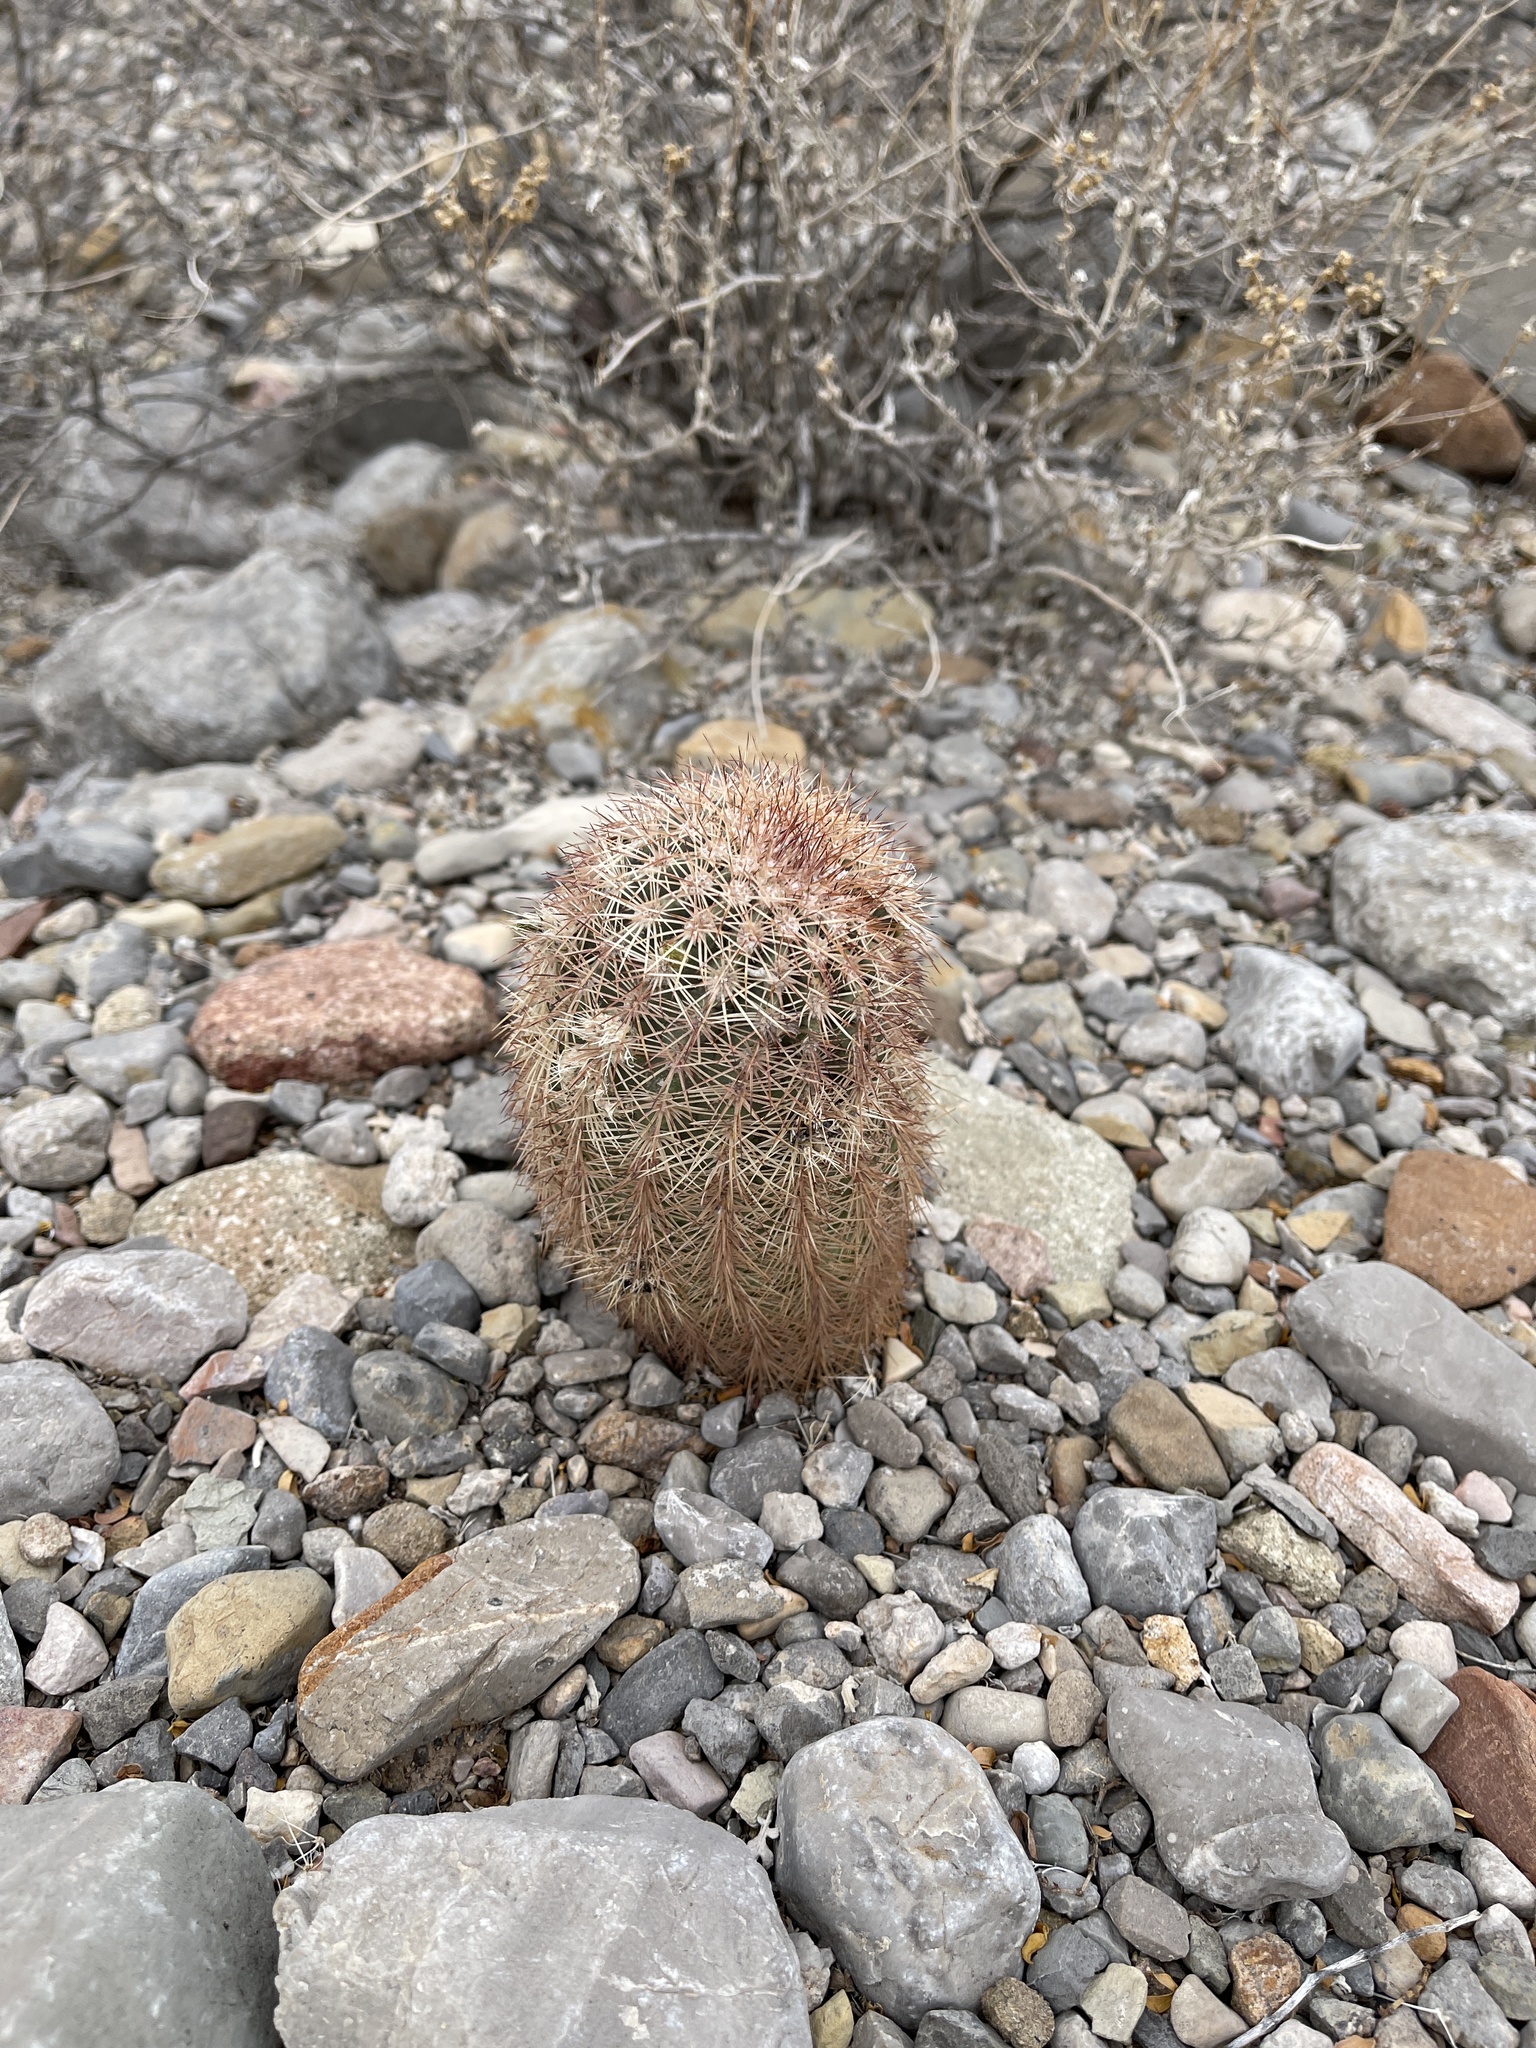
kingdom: Plantae
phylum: Tracheophyta
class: Magnoliopsida
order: Caryophyllales
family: Cactaceae
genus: Echinocereus
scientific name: Echinocereus dasyacanthus
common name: Spiny hedgehog cactus
